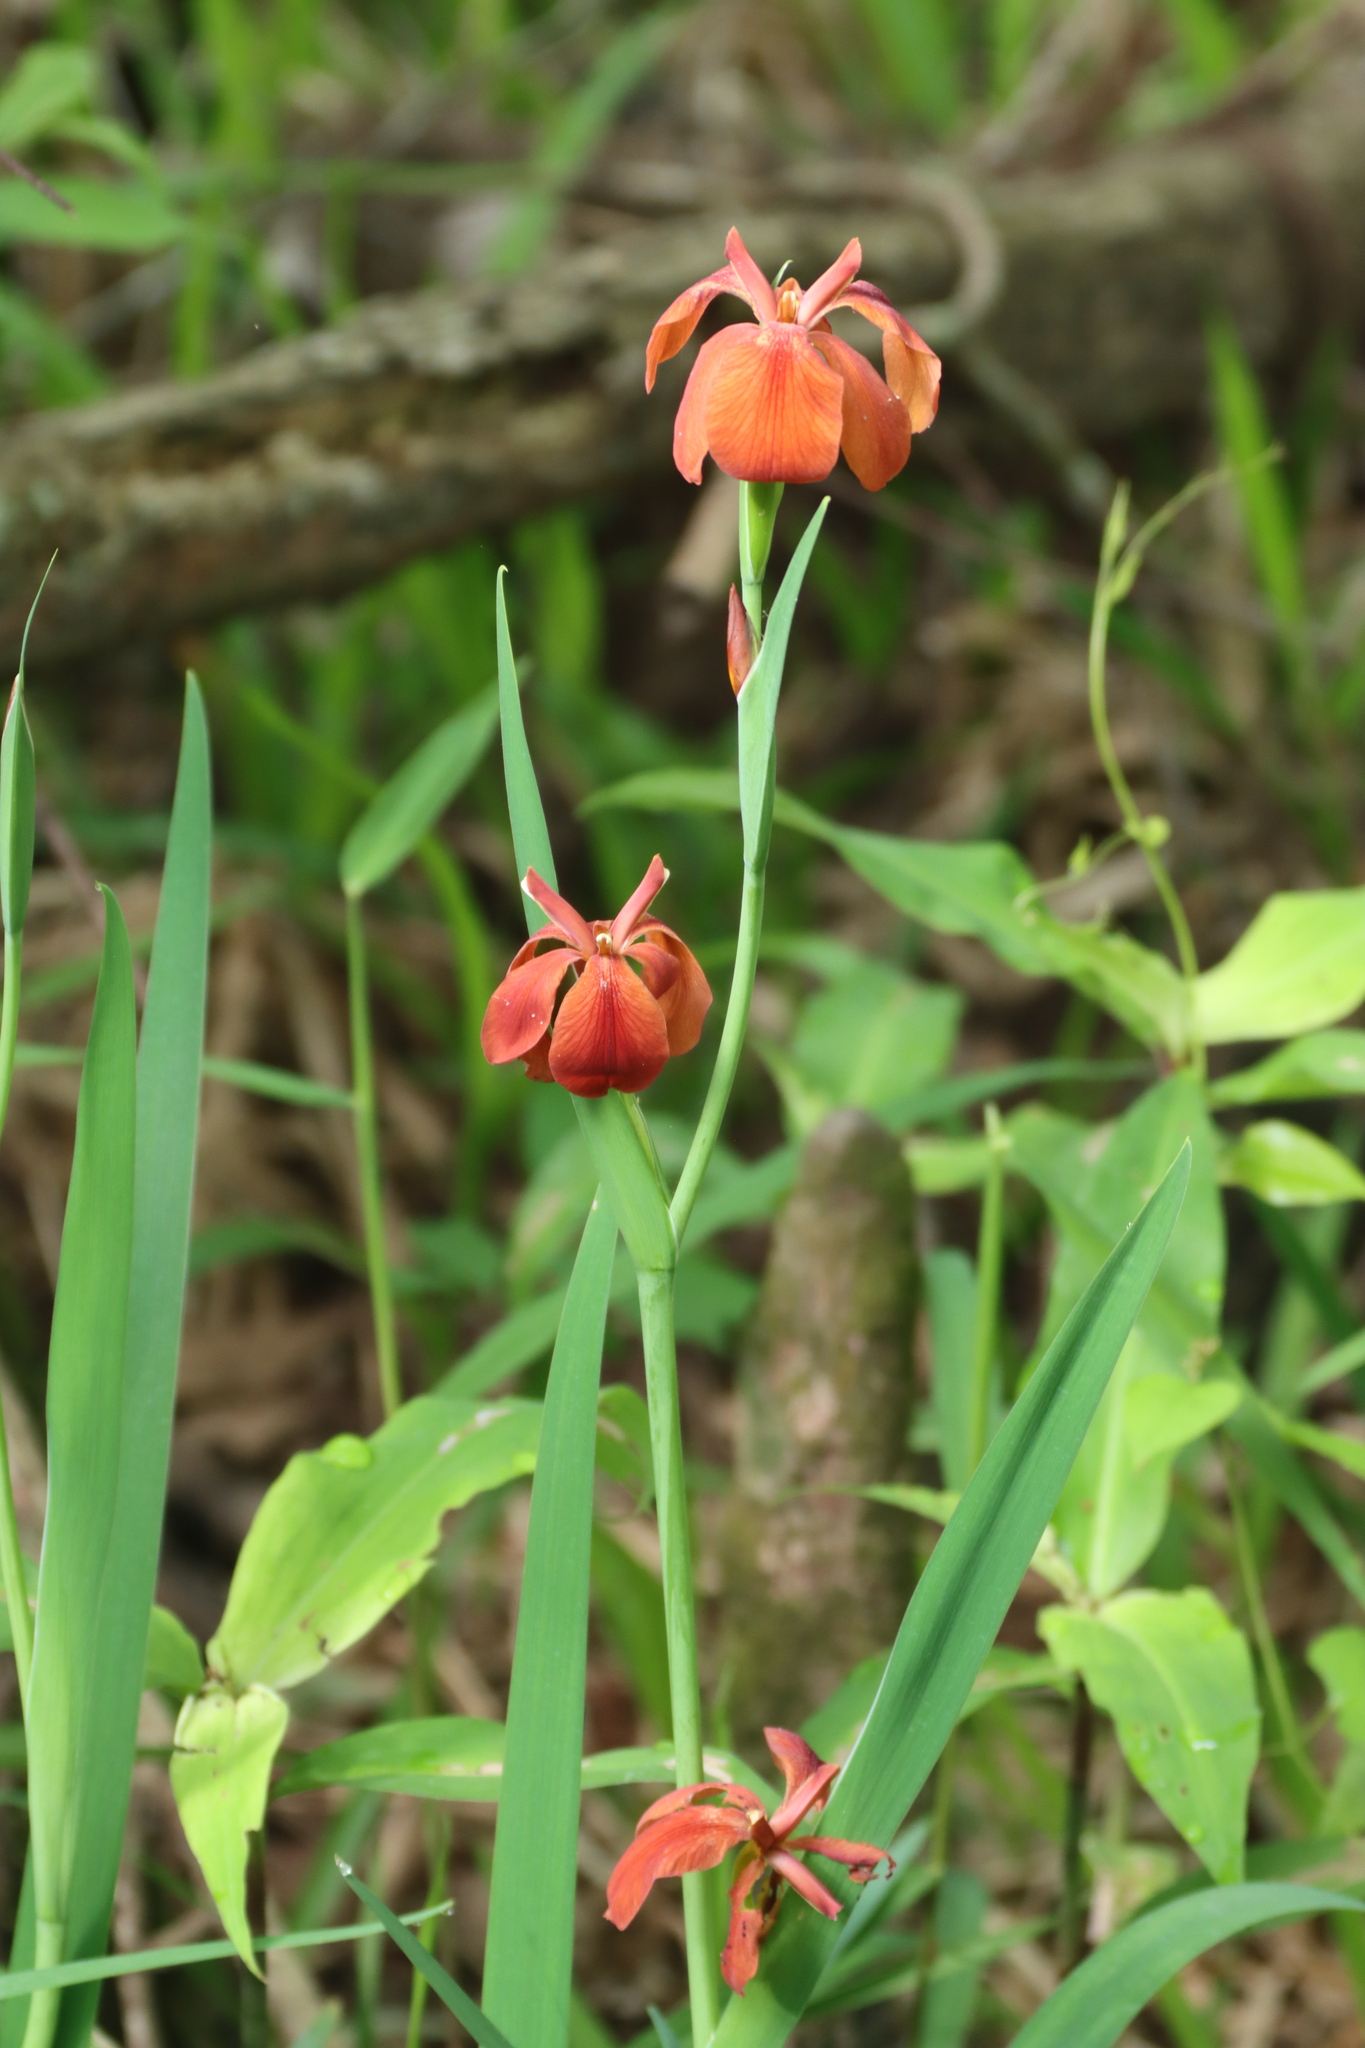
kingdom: Plantae
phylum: Tracheophyta
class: Liliopsida
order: Asparagales
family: Iridaceae
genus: Iris
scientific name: Iris fulva
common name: Copper iris
